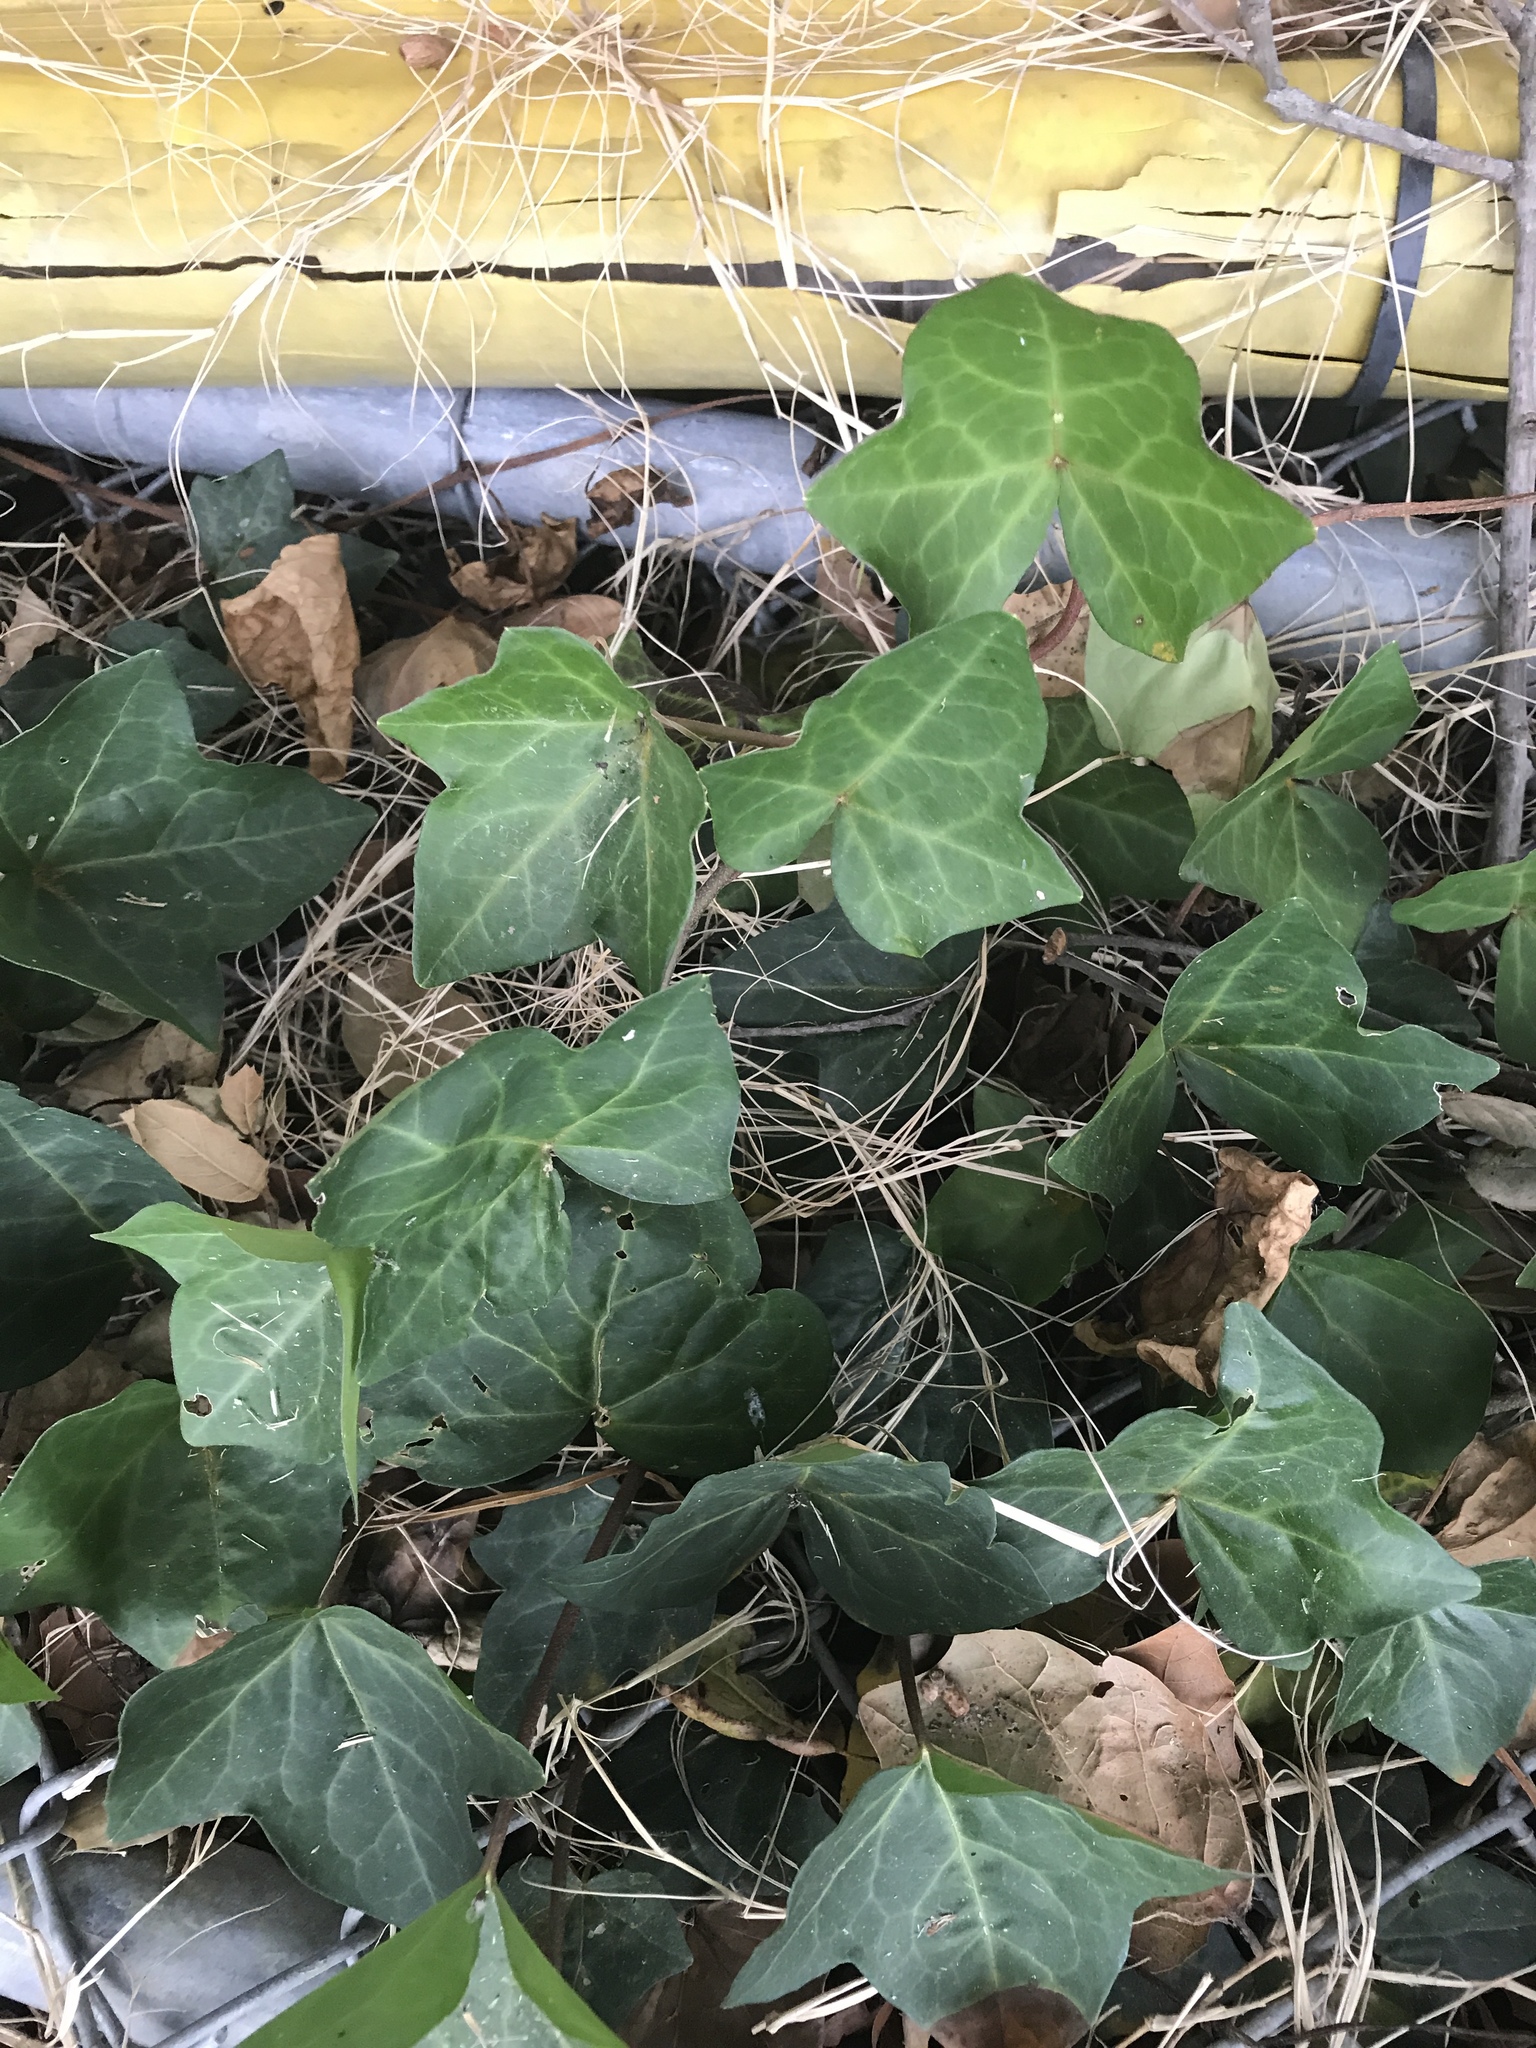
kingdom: Plantae
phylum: Tracheophyta
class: Magnoliopsida
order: Apiales
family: Araliaceae
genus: Hedera
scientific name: Hedera helix
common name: Ivy
